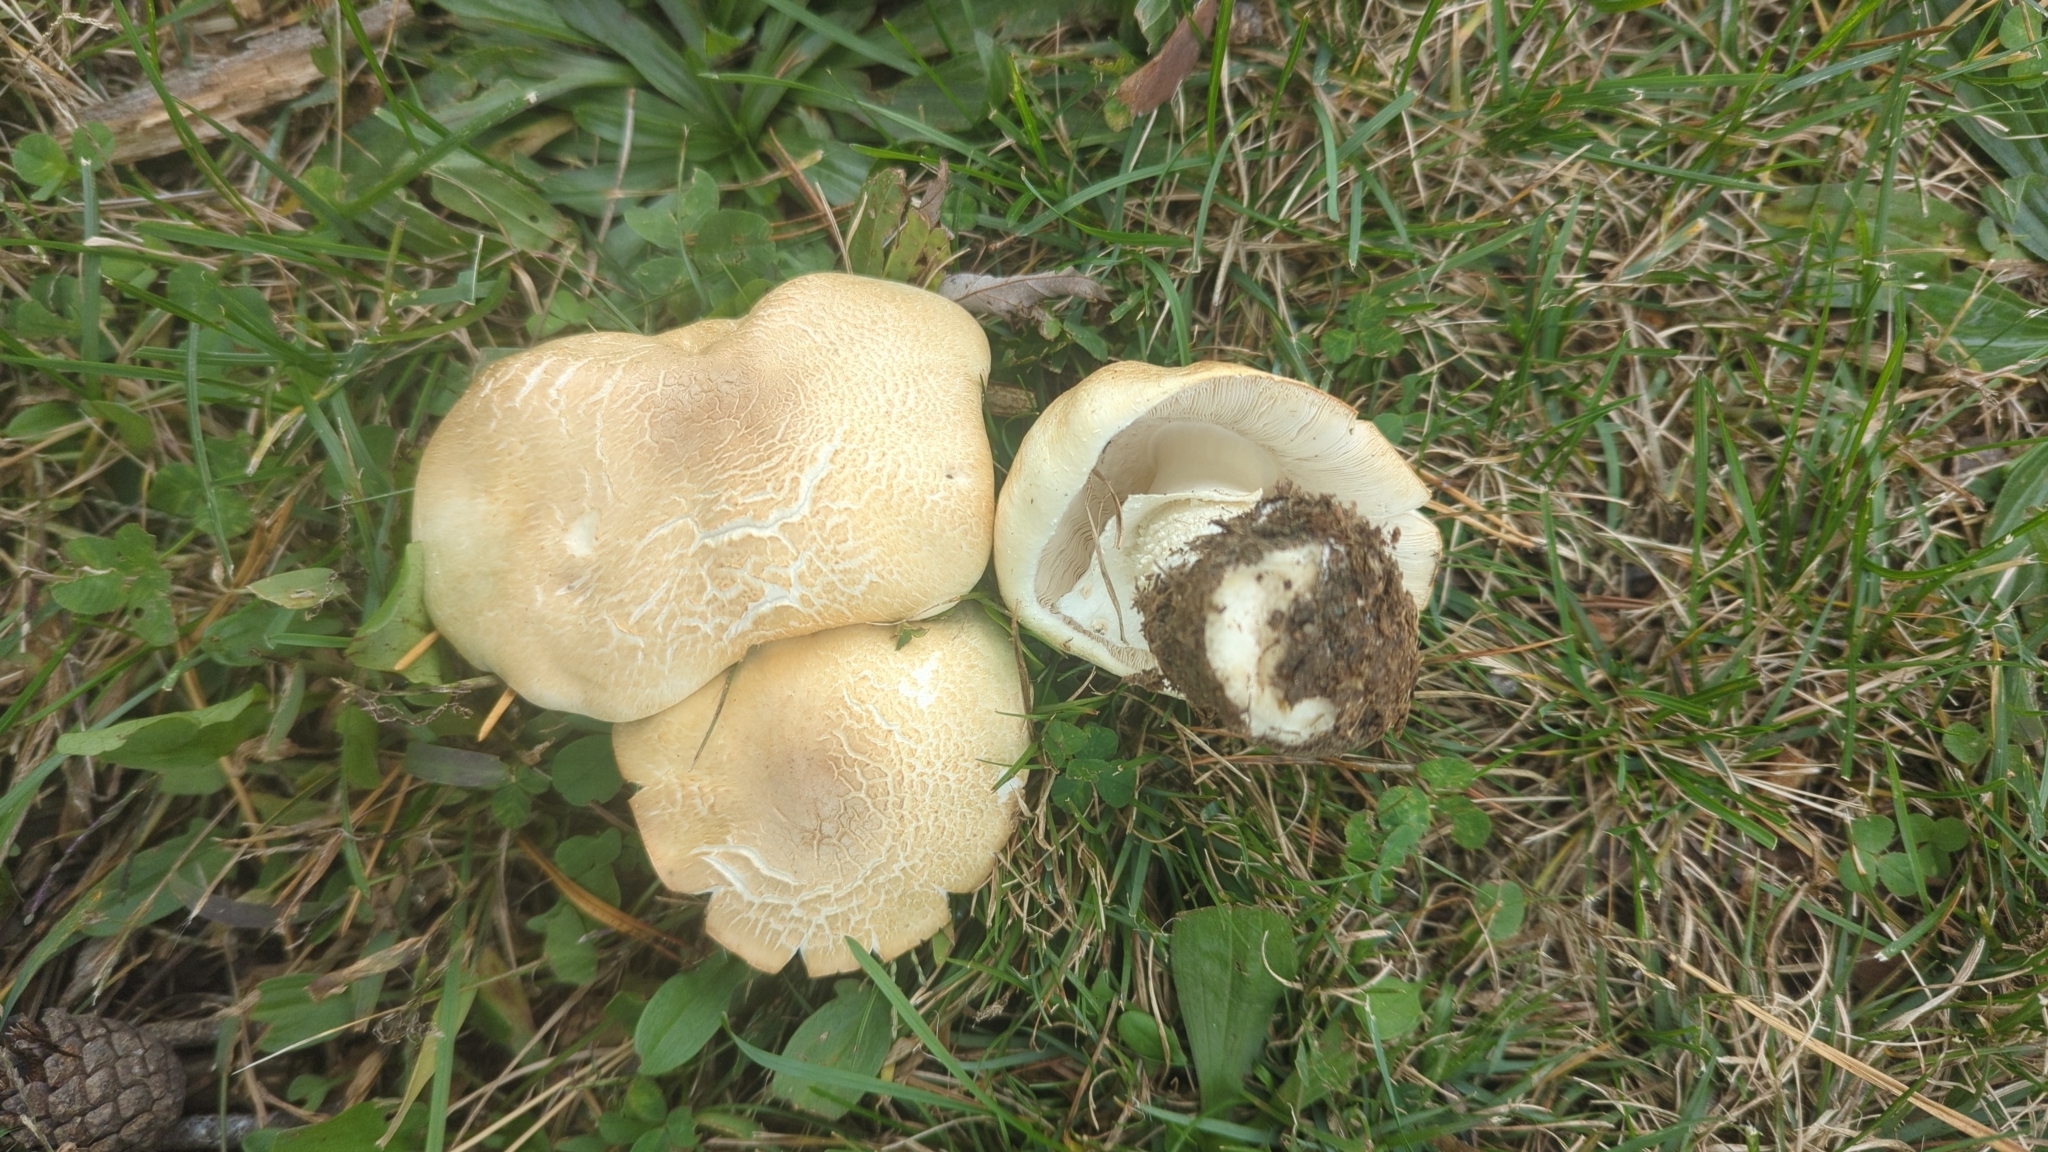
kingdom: Fungi
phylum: Basidiomycota
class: Agaricomycetes
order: Agaricales
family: Agaricaceae
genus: Agaricus
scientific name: Agaricus arvensis
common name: Horse mushroom
